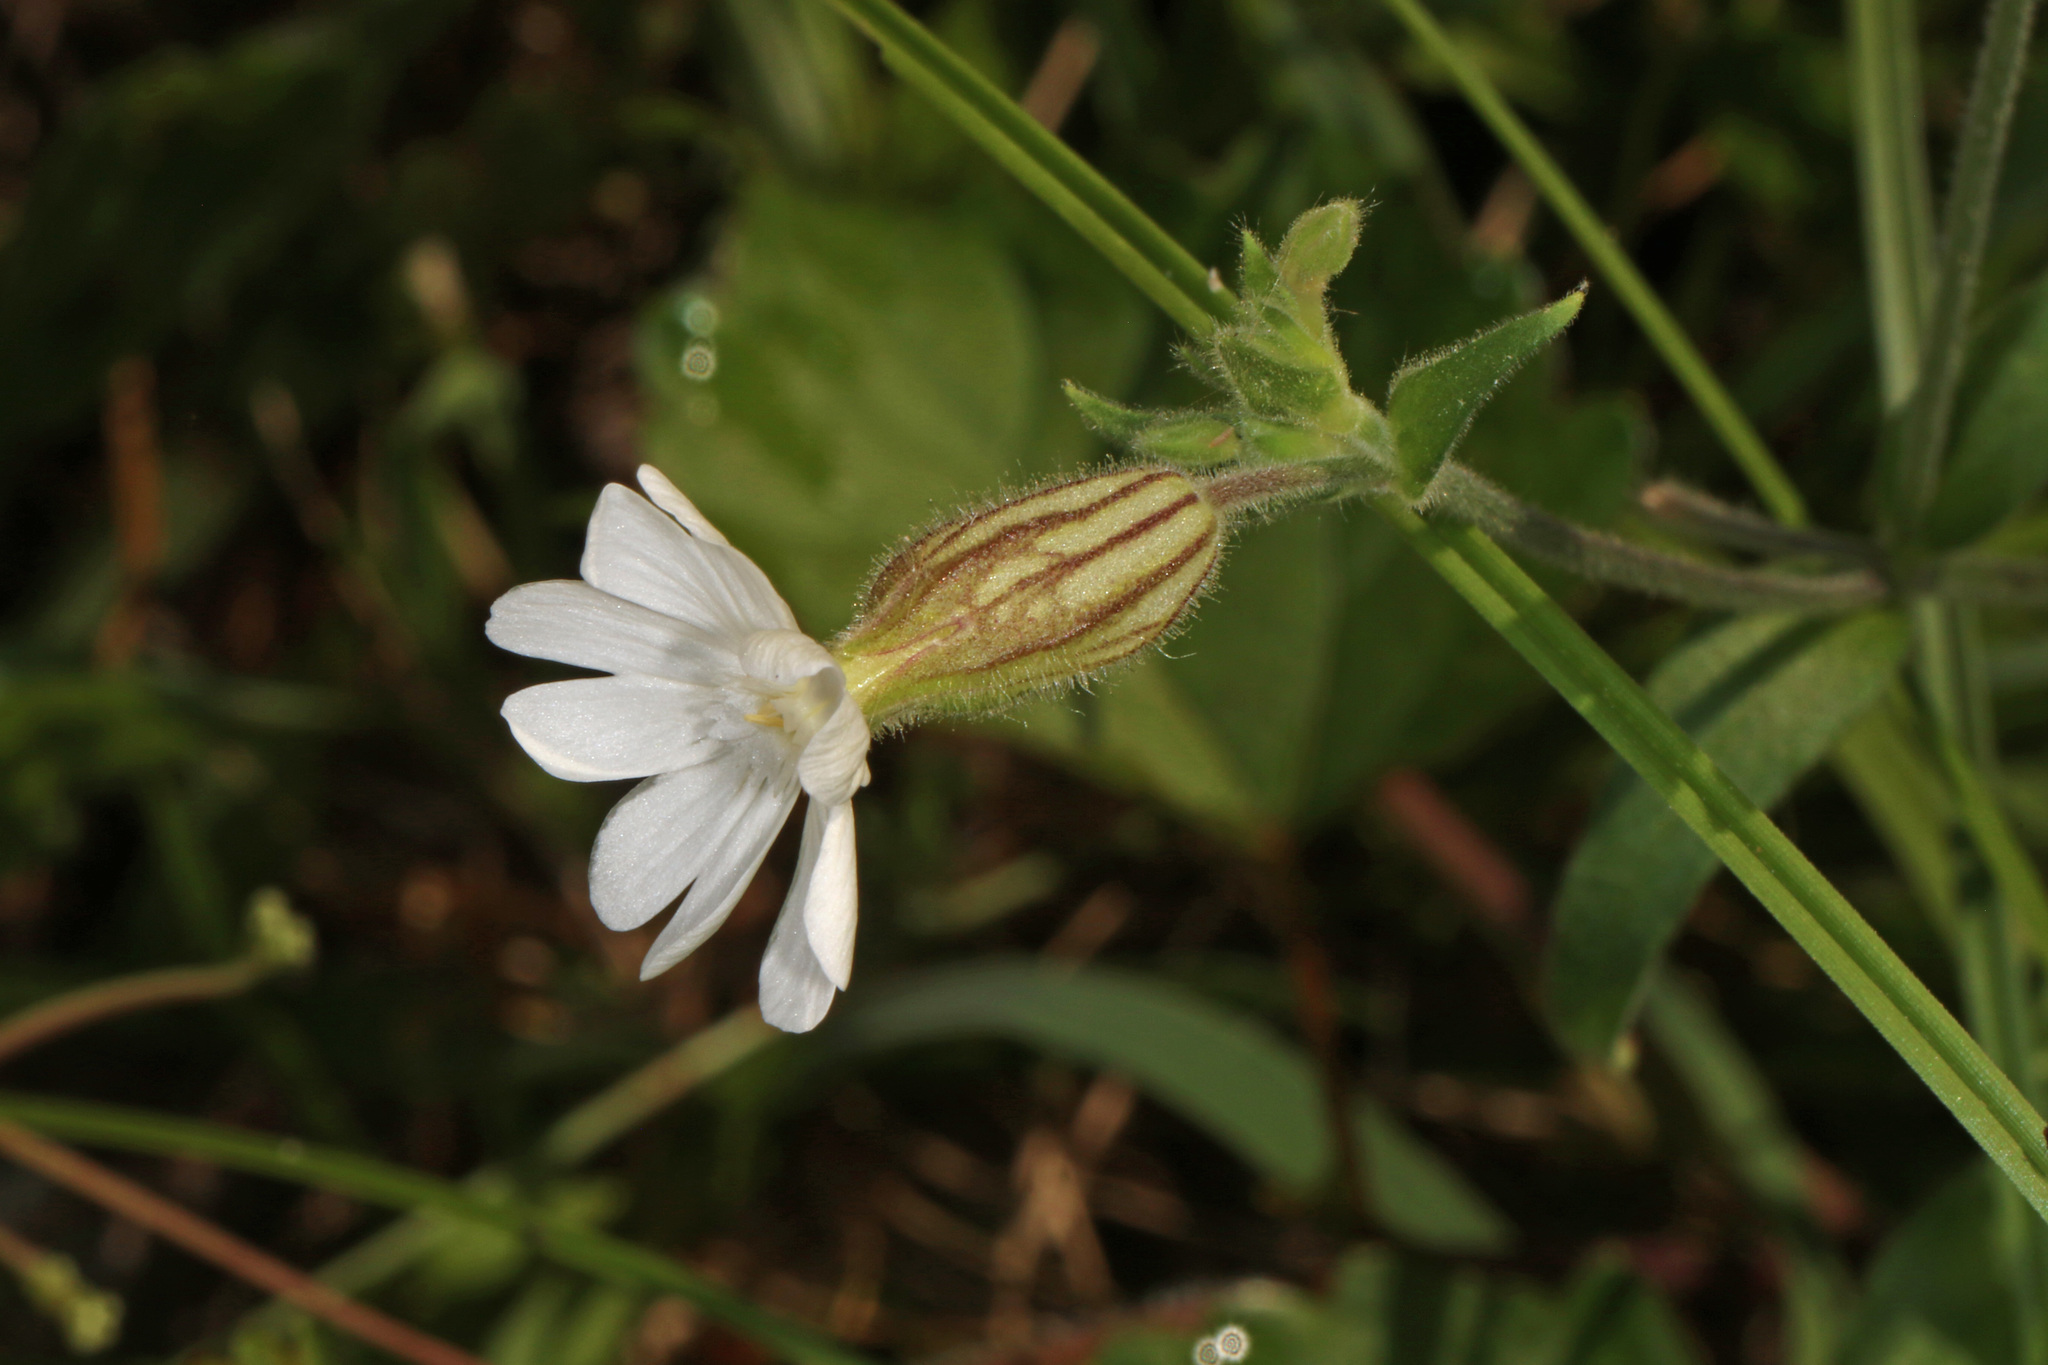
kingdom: Plantae
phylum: Tracheophyta
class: Magnoliopsida
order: Caryophyllales
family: Caryophyllaceae
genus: Silene
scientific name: Silene latifolia
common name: White campion
